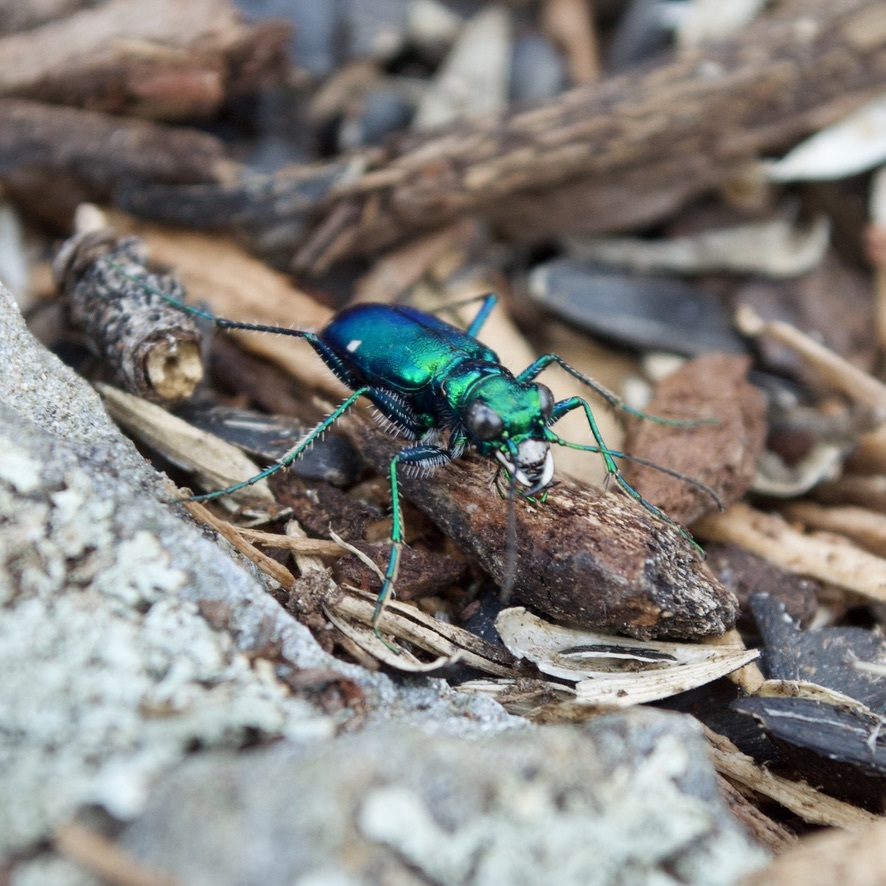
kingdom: Animalia
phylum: Arthropoda
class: Insecta
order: Coleoptera
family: Carabidae
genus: Cicindela
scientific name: Cicindela sexguttata
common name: Six-spotted tiger beetle
